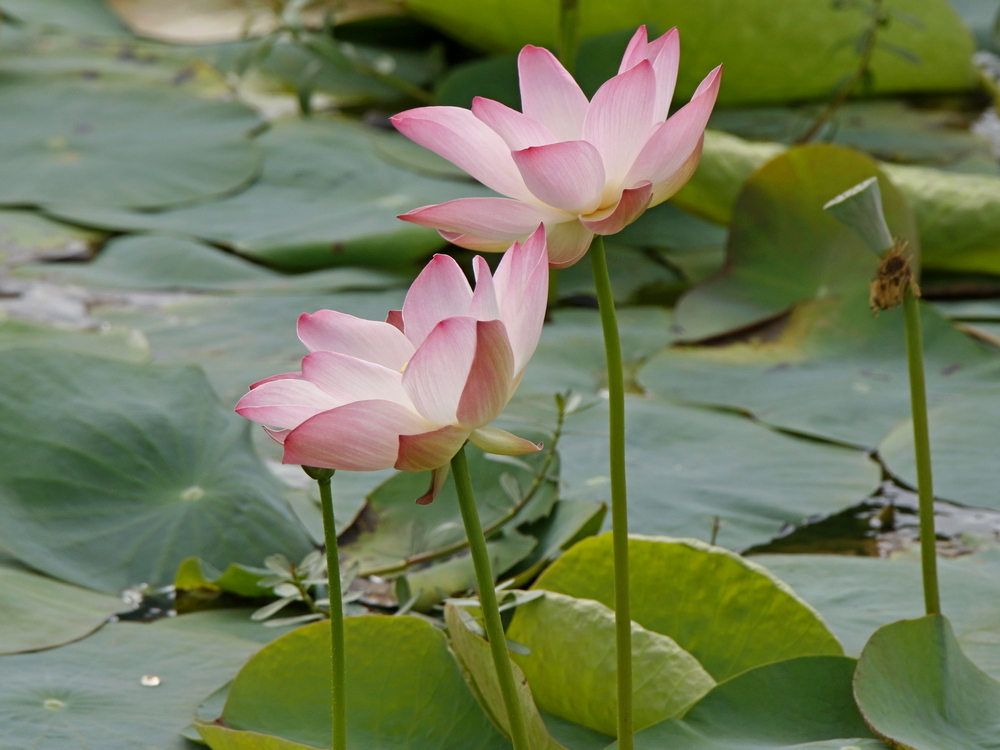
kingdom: Plantae
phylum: Tracheophyta
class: Magnoliopsida
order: Proteales
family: Nelumbonaceae
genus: Nelumbo
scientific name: Nelumbo nucifera
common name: Sacred lotus
